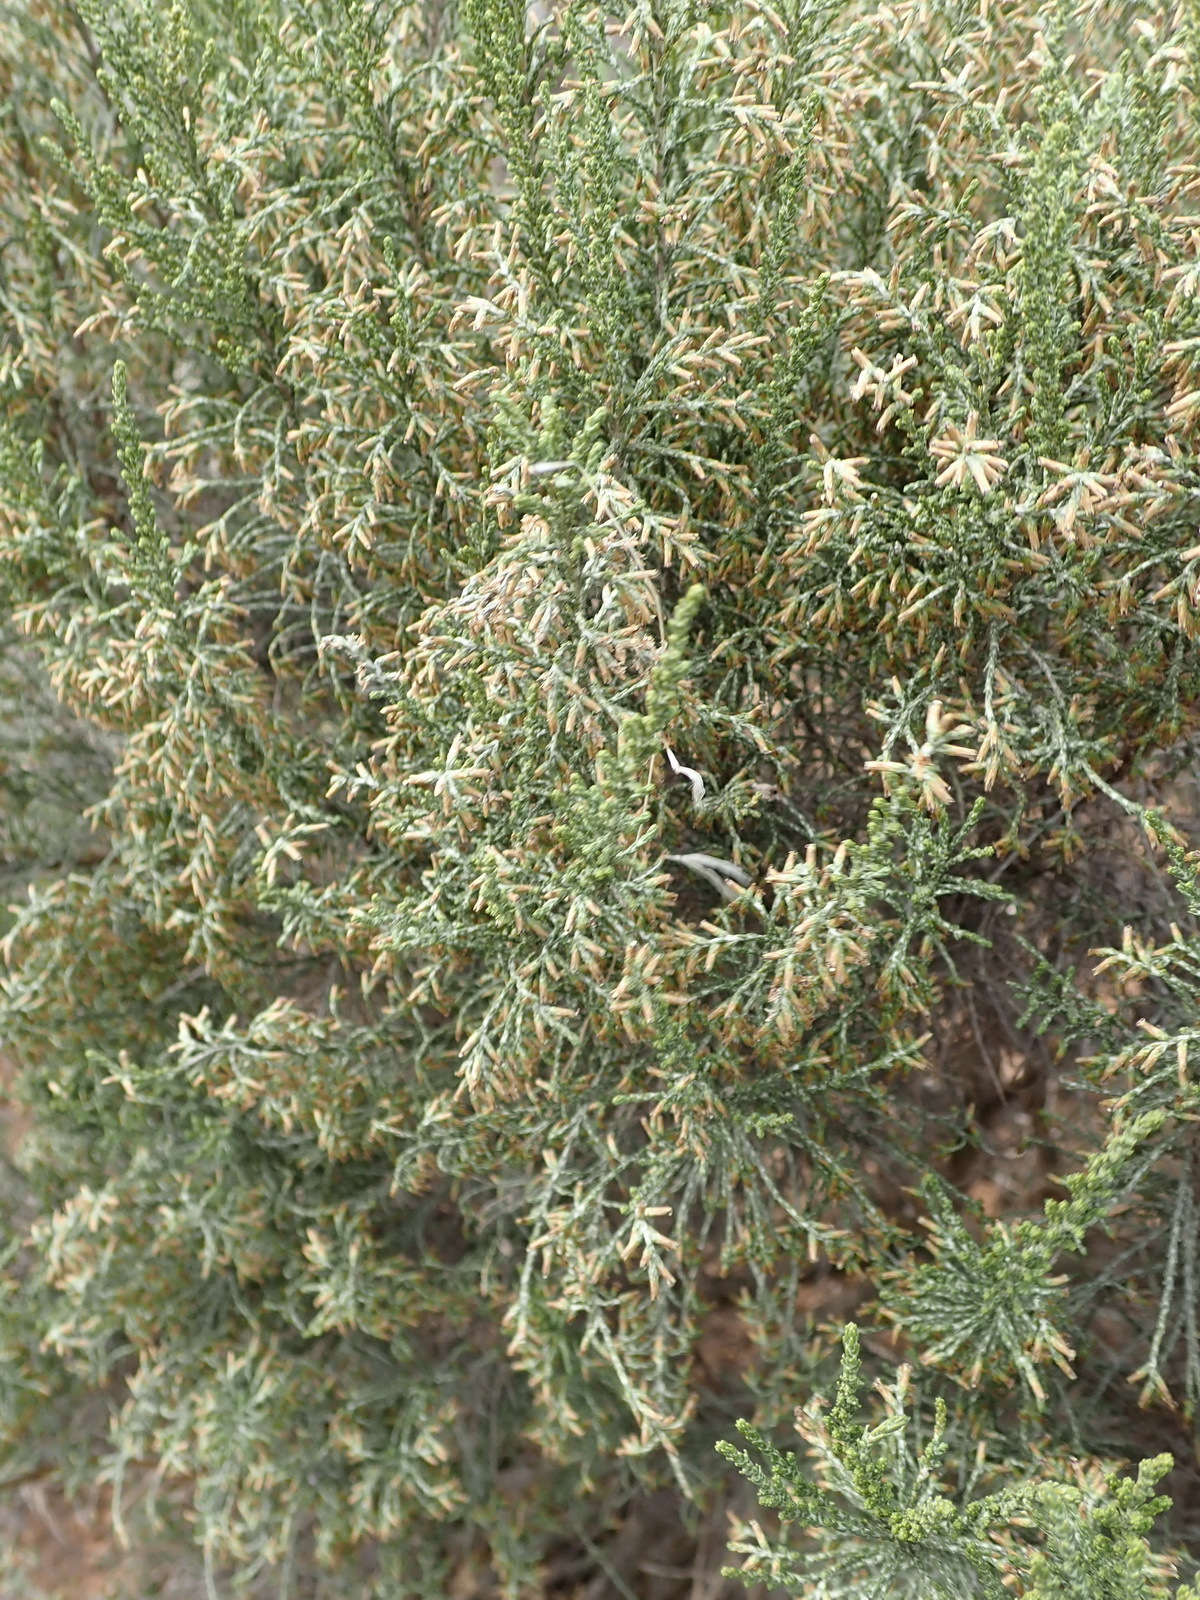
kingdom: Plantae
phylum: Tracheophyta
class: Magnoliopsida
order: Asterales
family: Asteraceae
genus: Dicerothamnus
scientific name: Dicerothamnus rhinocerotis
